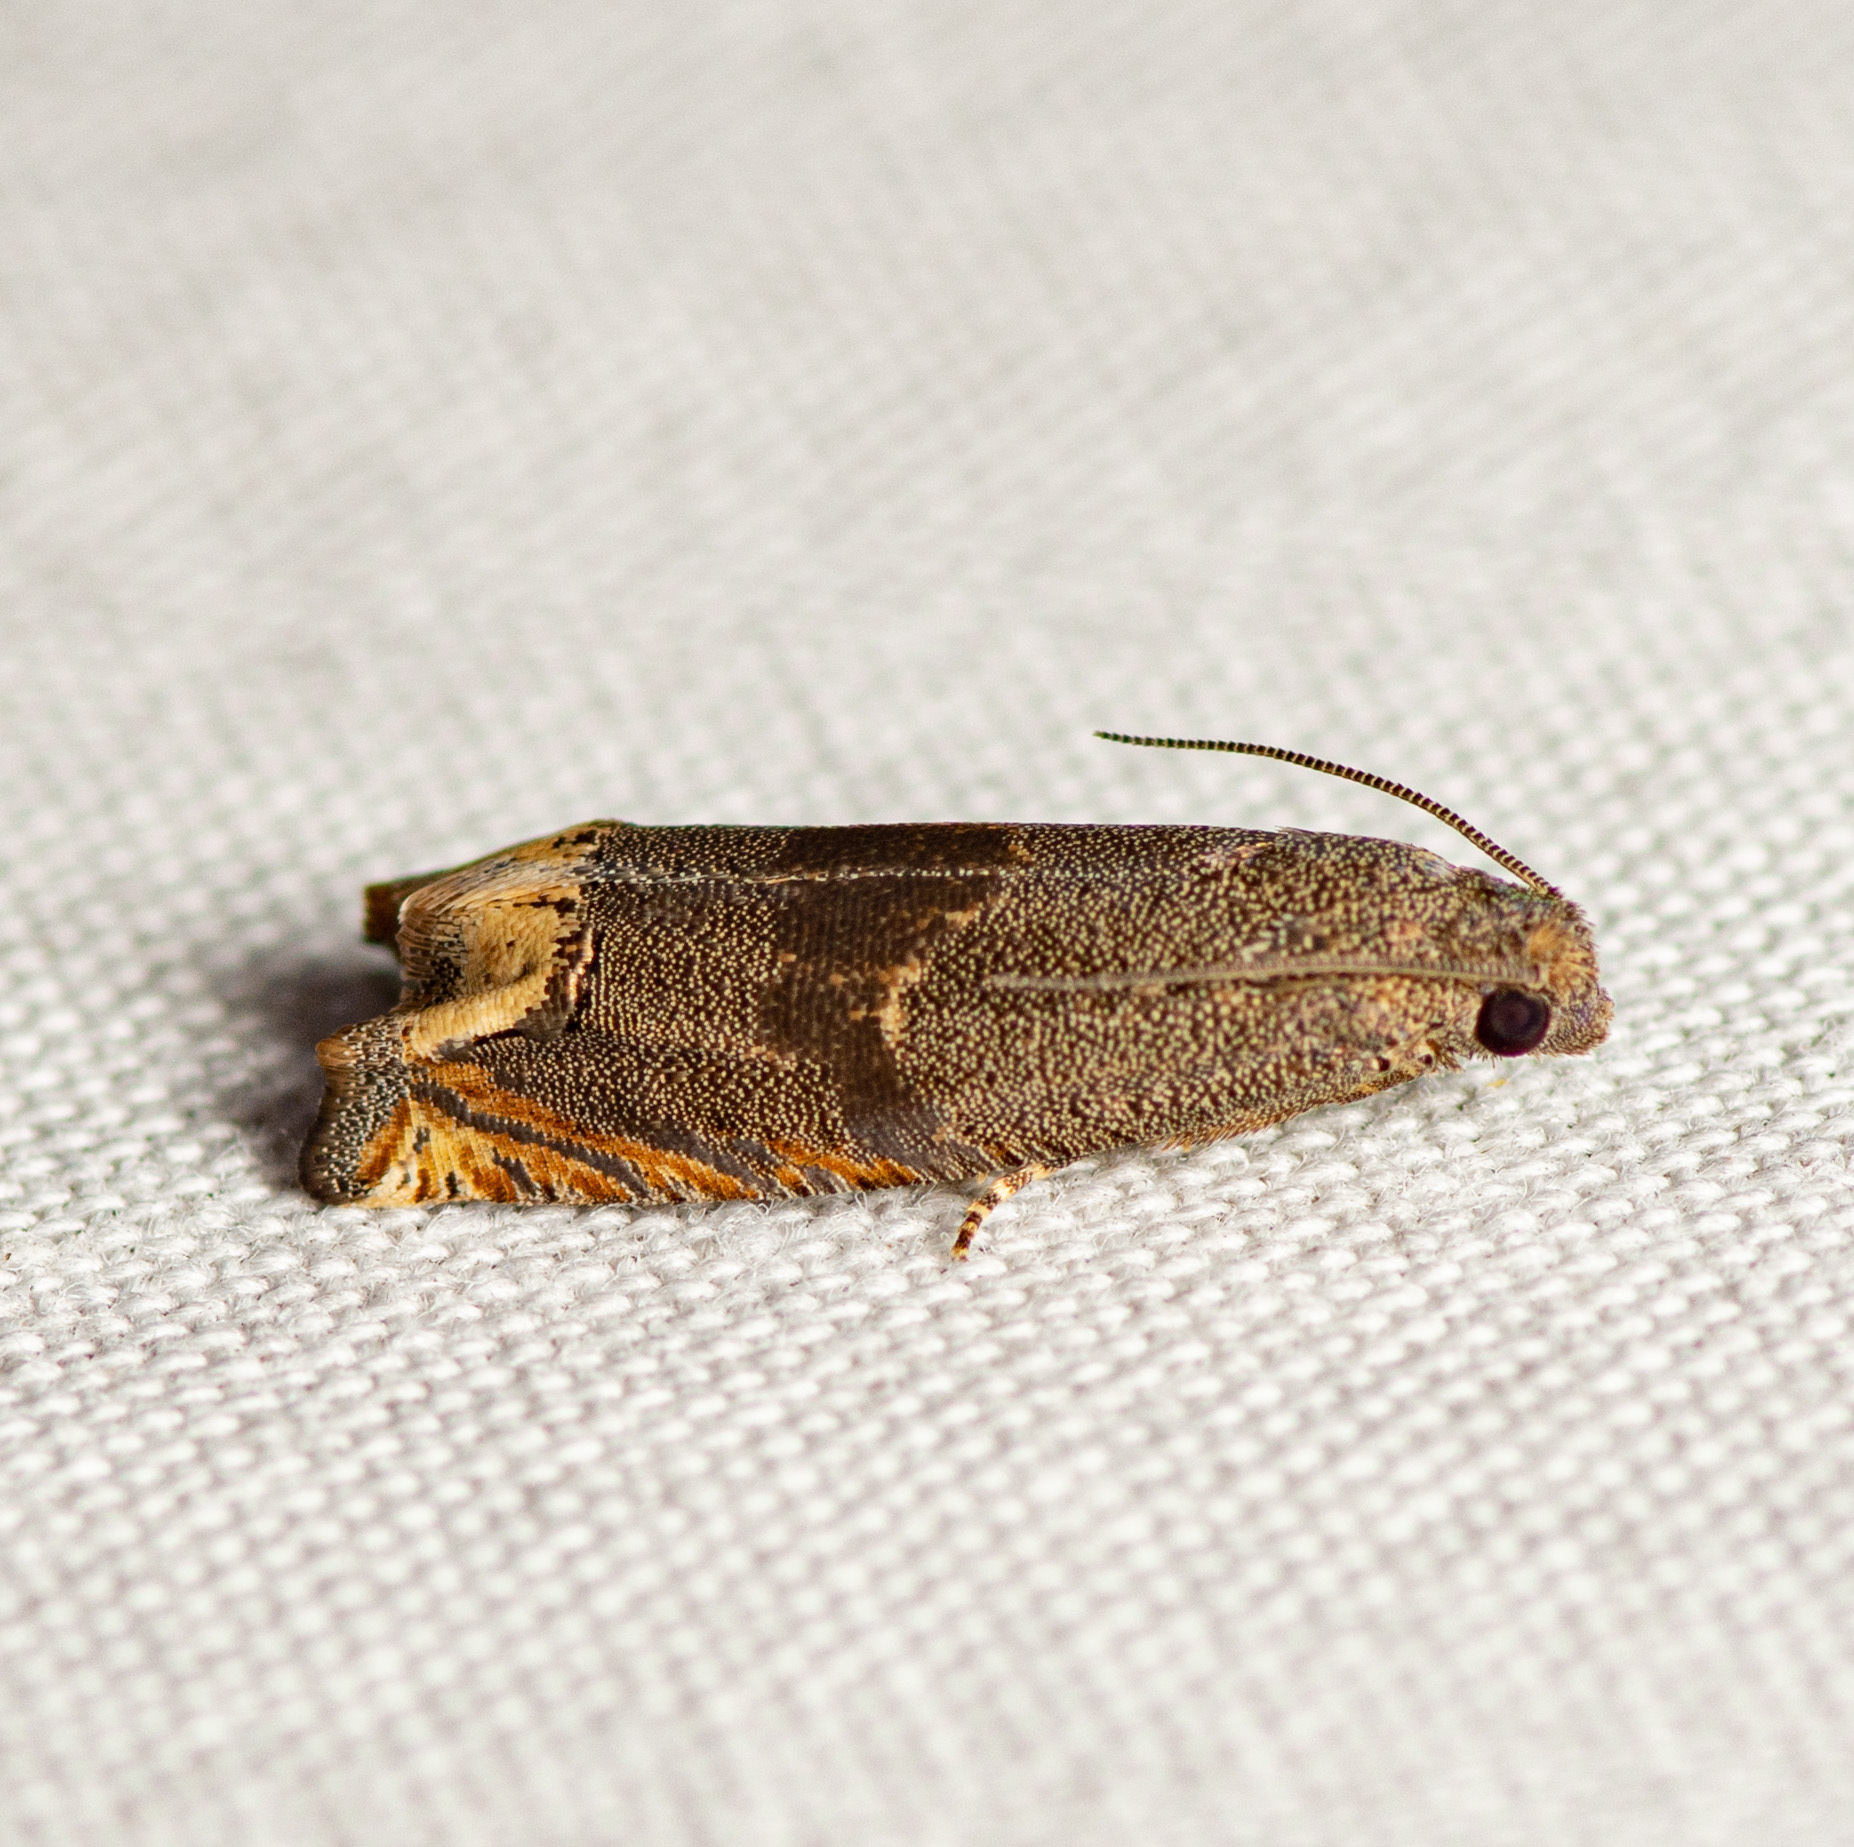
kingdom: Animalia
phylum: Arthropoda
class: Insecta
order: Lepidoptera
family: Tortricidae
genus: Epiblema
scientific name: Epiblema strenuana
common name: Ragweed borer moth
